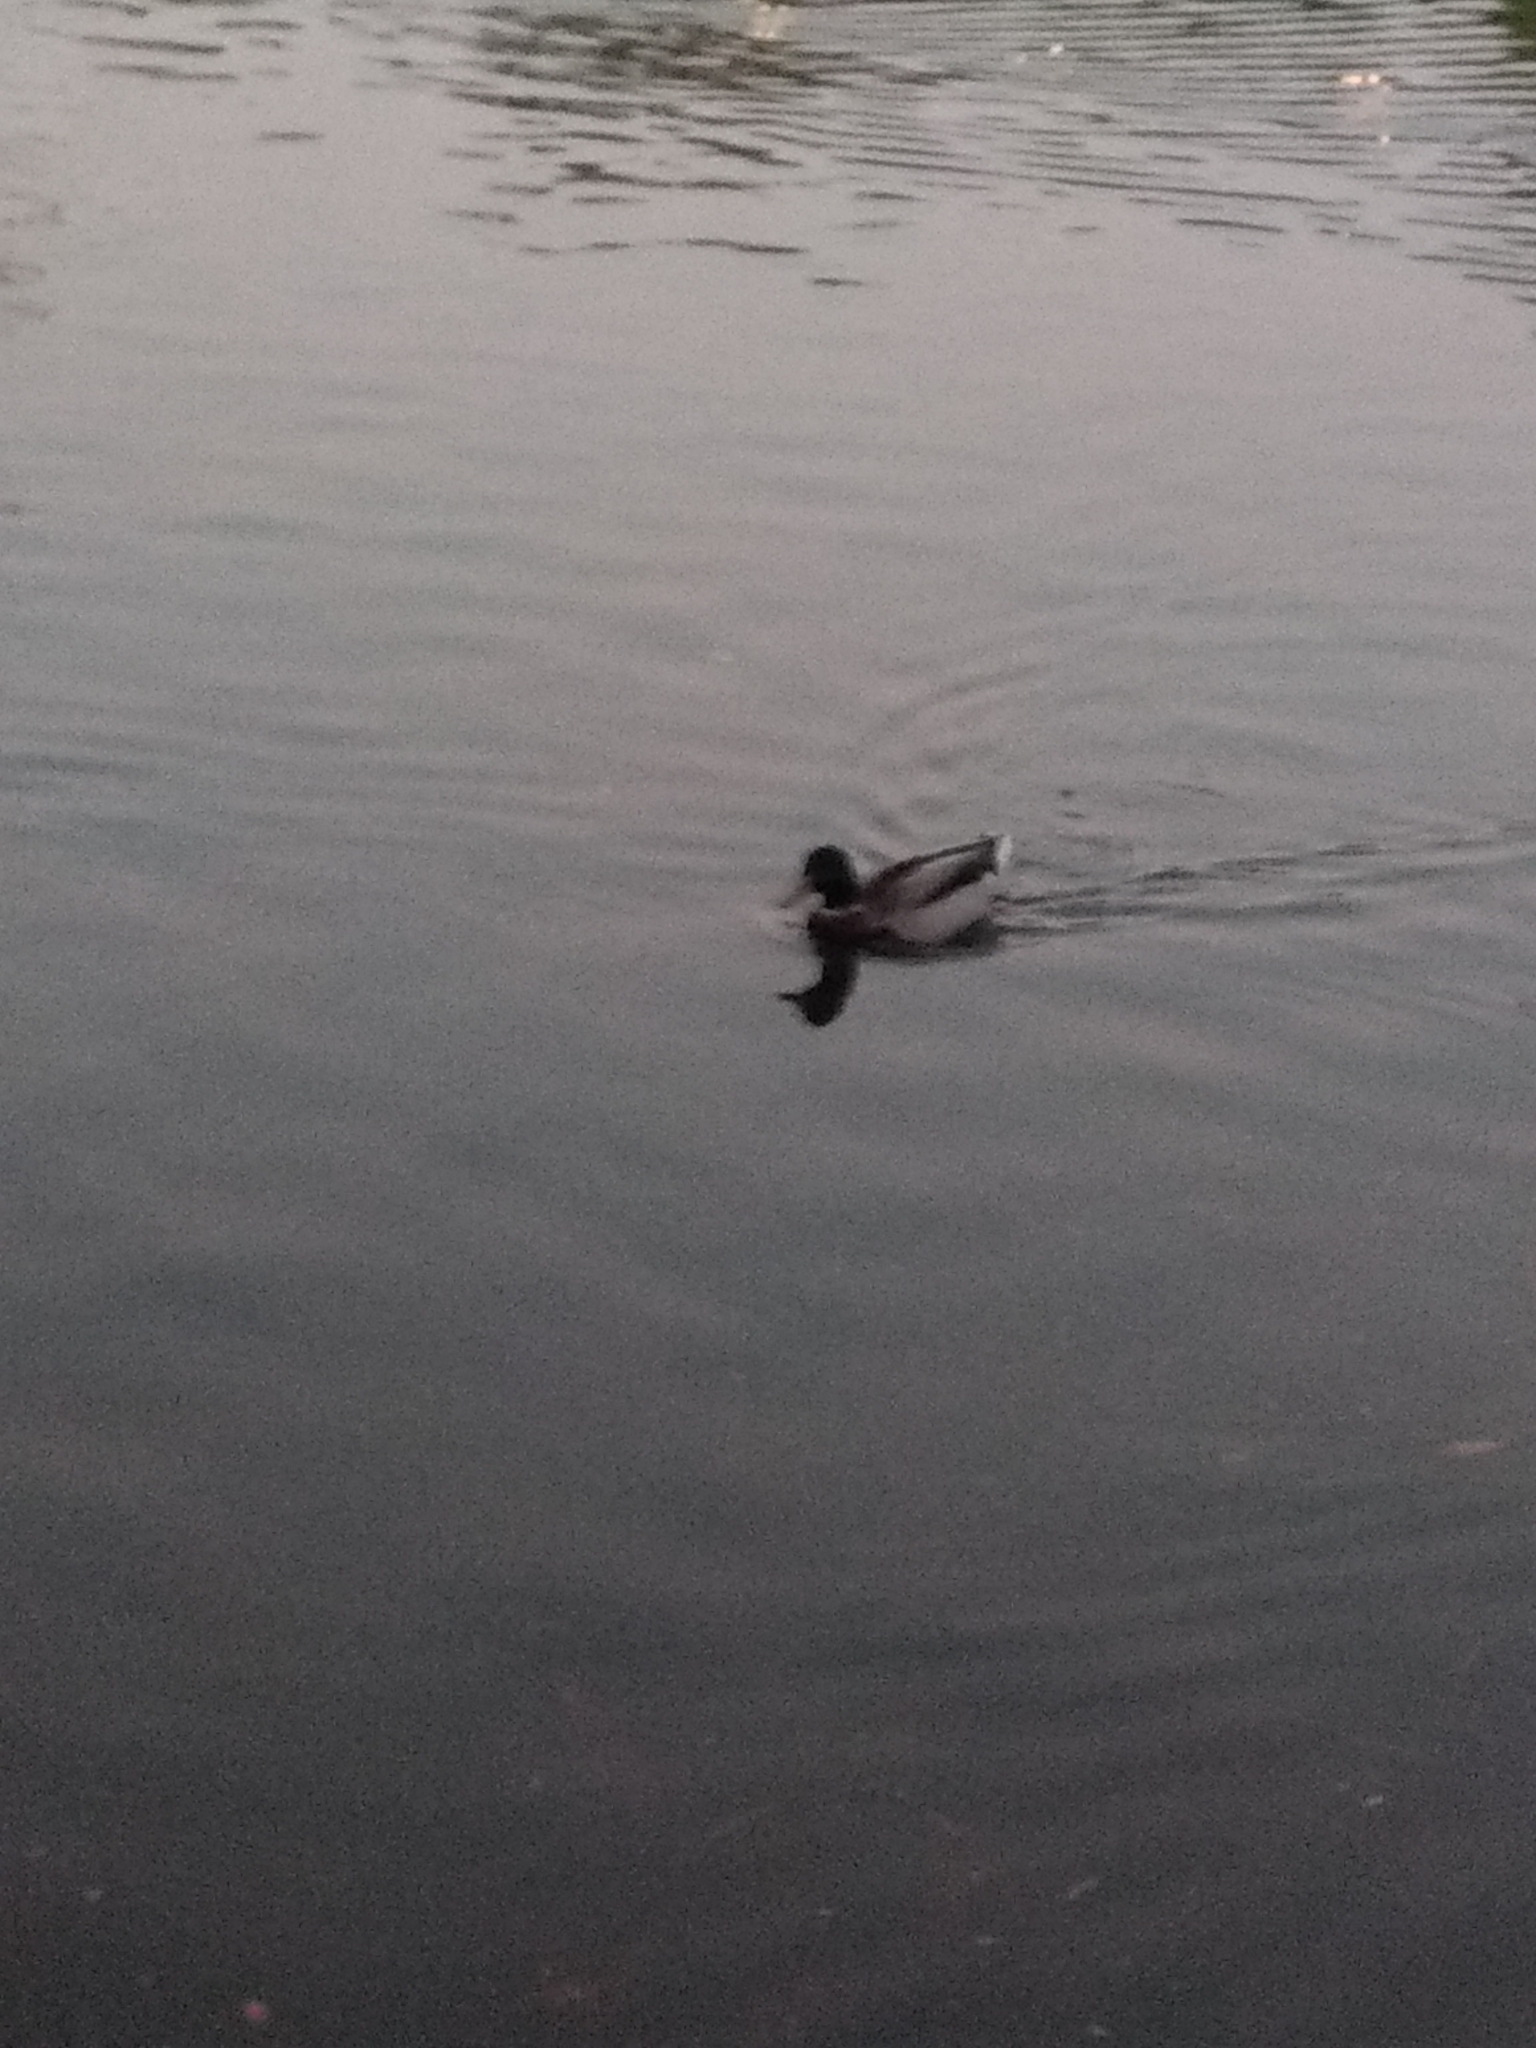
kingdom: Animalia
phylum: Chordata
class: Aves
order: Anseriformes
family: Anatidae
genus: Anas
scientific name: Anas platyrhynchos
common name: Mallard
